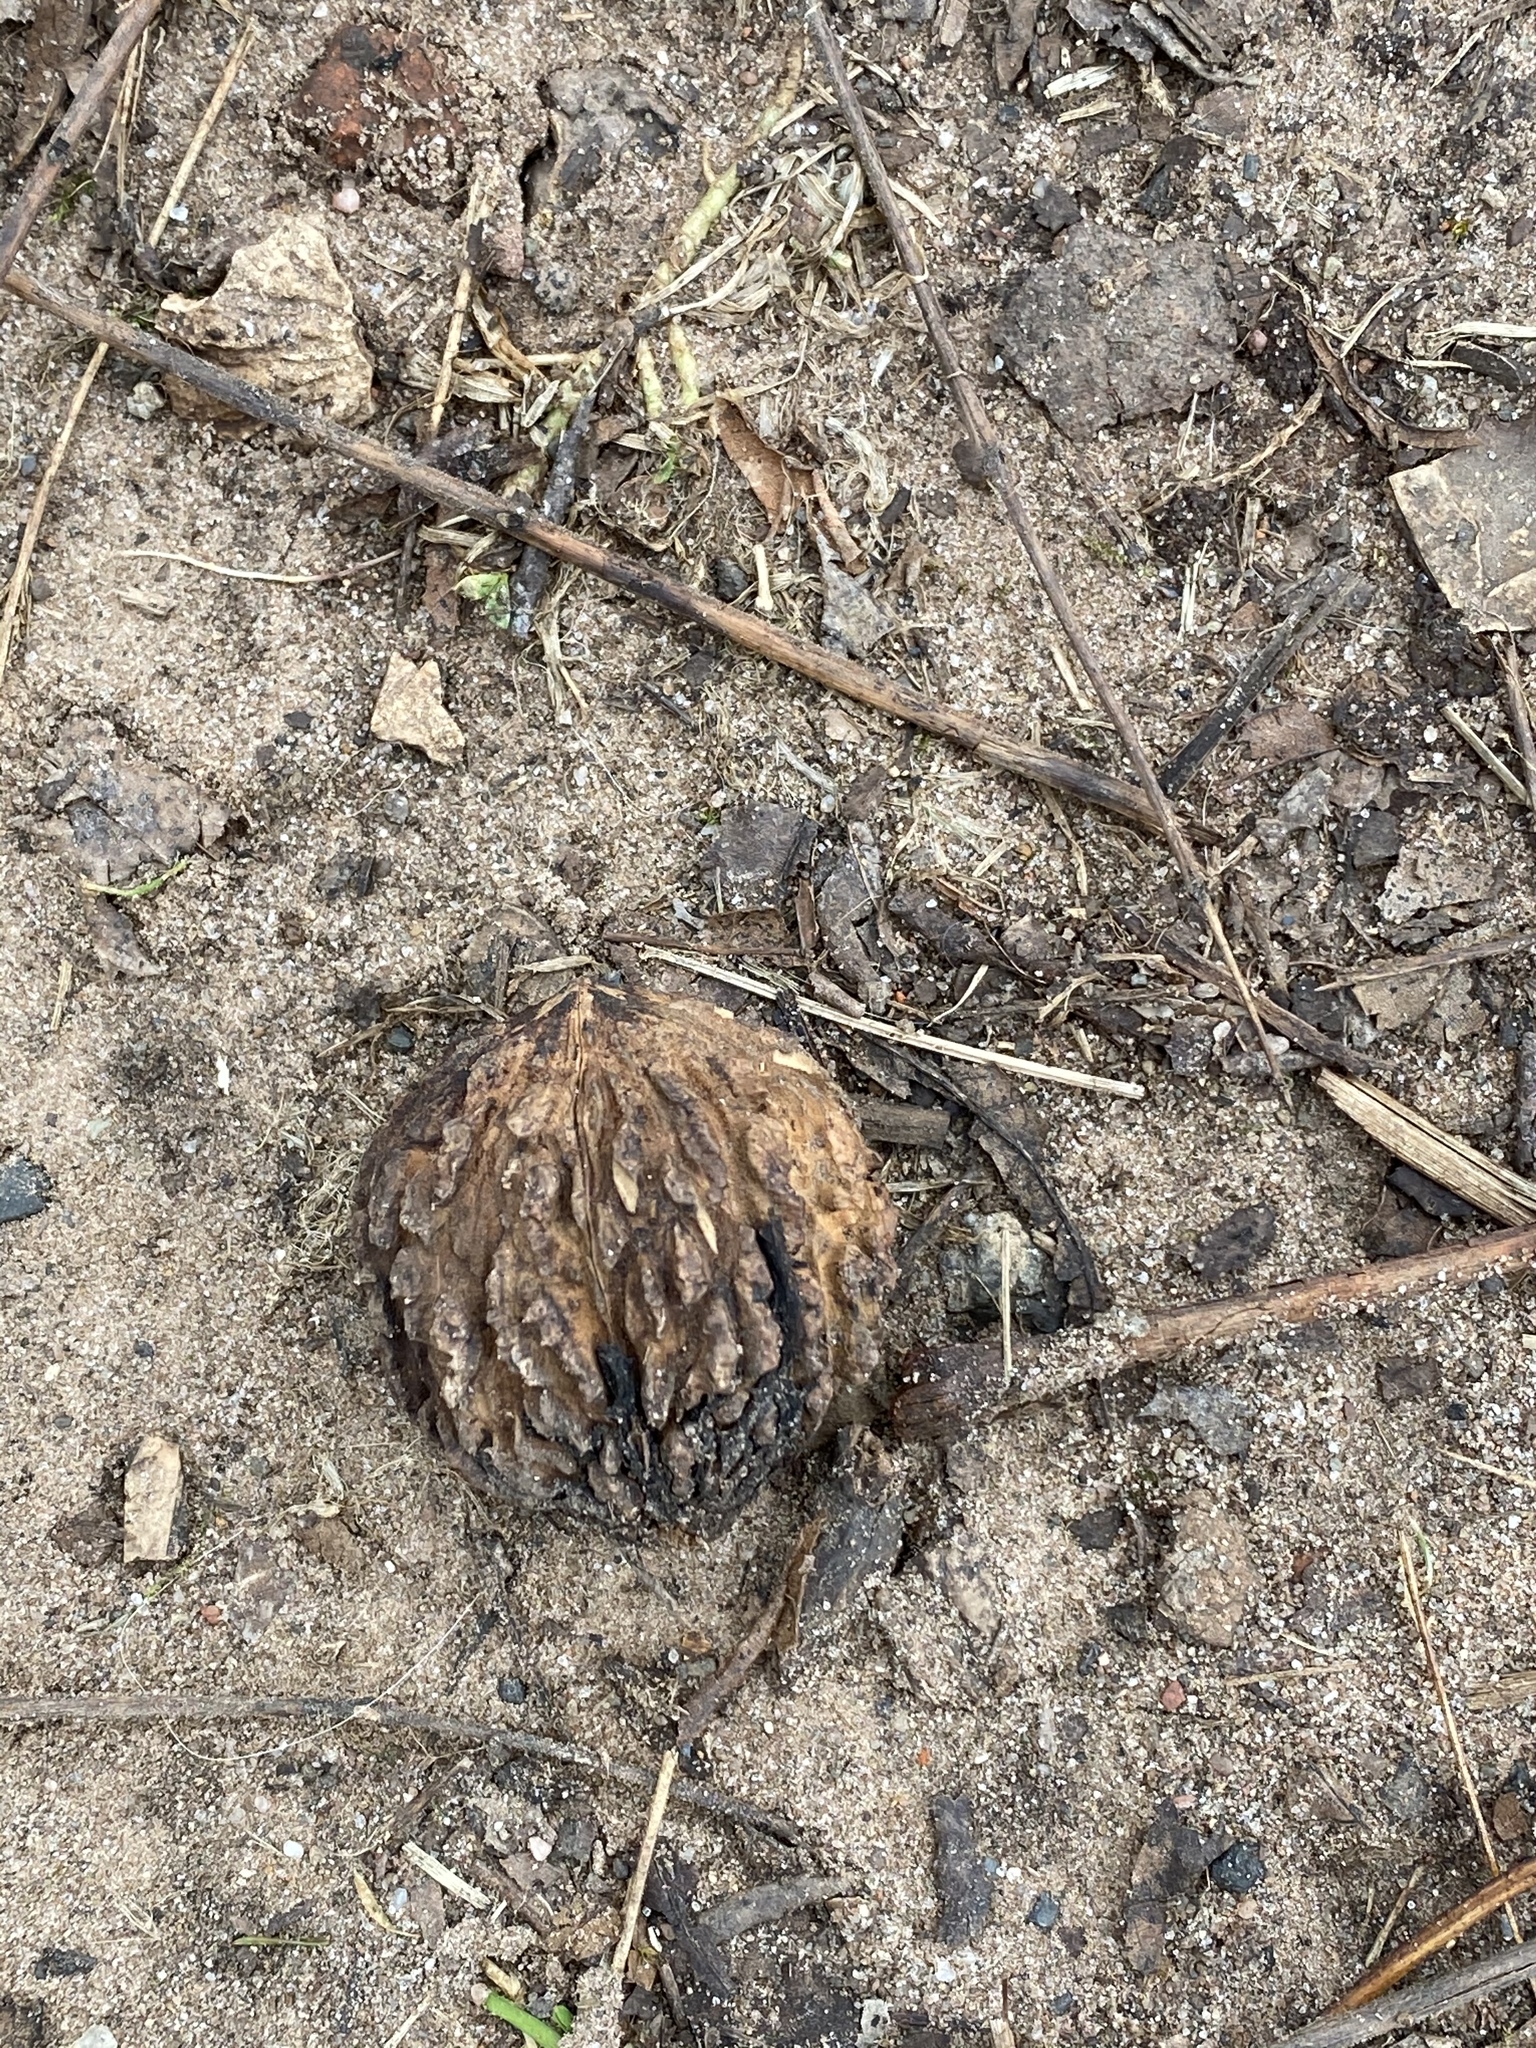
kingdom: Plantae
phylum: Tracheophyta
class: Magnoliopsida
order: Fagales
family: Juglandaceae
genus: Juglans
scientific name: Juglans nigra
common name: Black walnut
